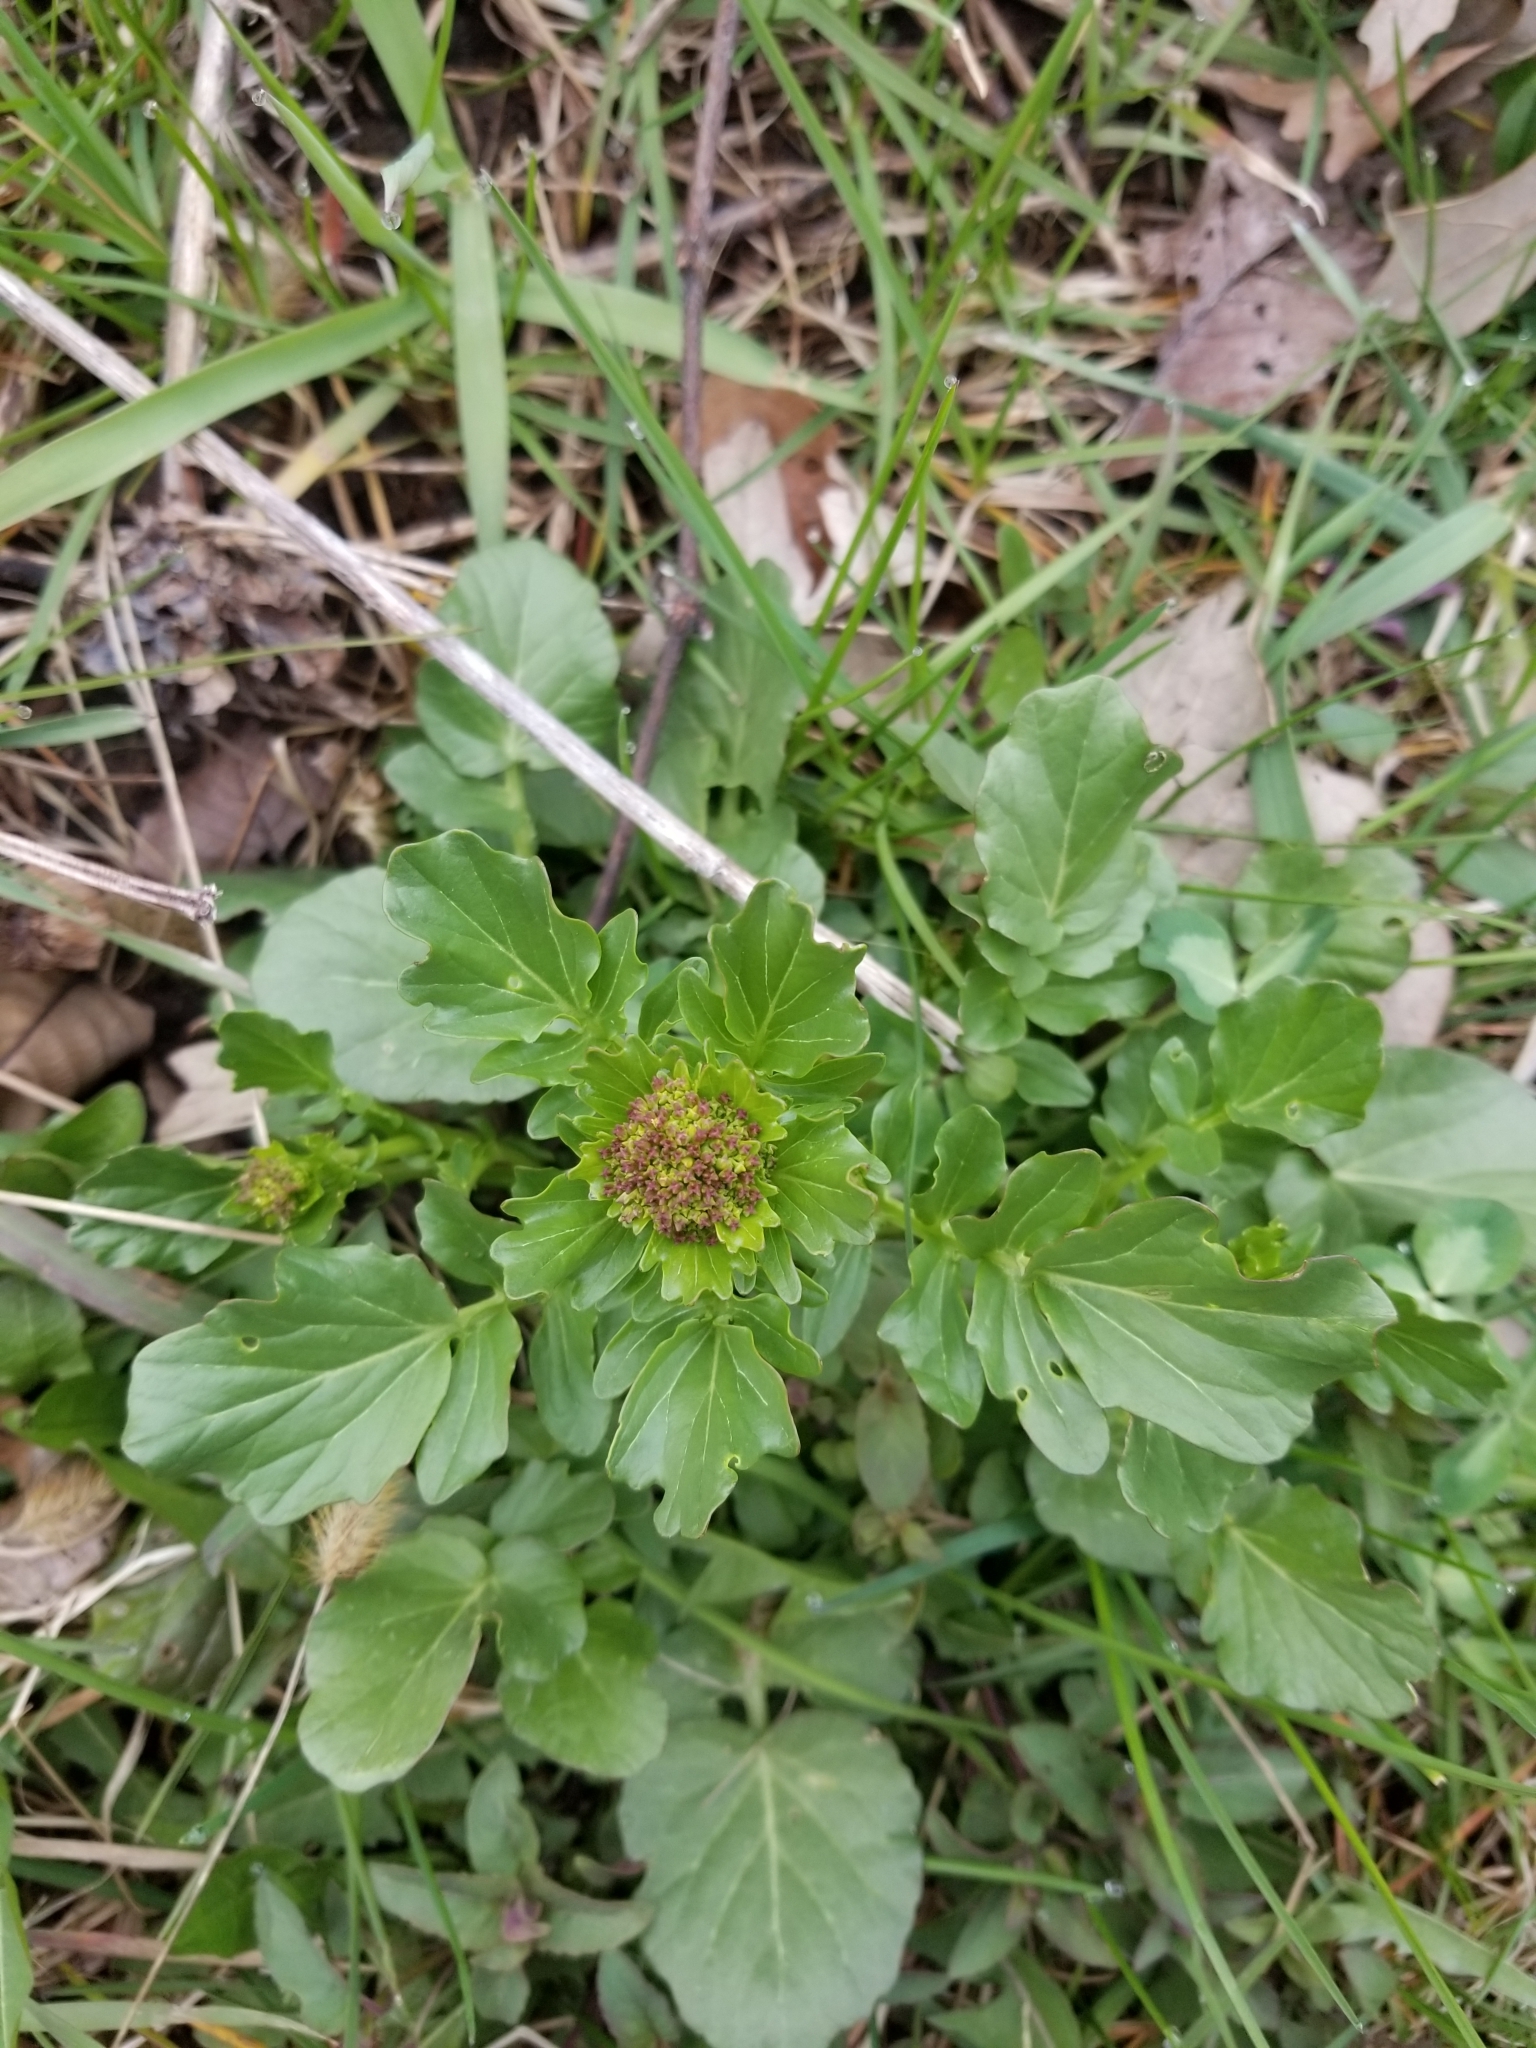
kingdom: Plantae
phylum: Tracheophyta
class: Magnoliopsida
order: Brassicales
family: Brassicaceae
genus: Barbarea
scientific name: Barbarea vulgaris
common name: Cressy-greens
